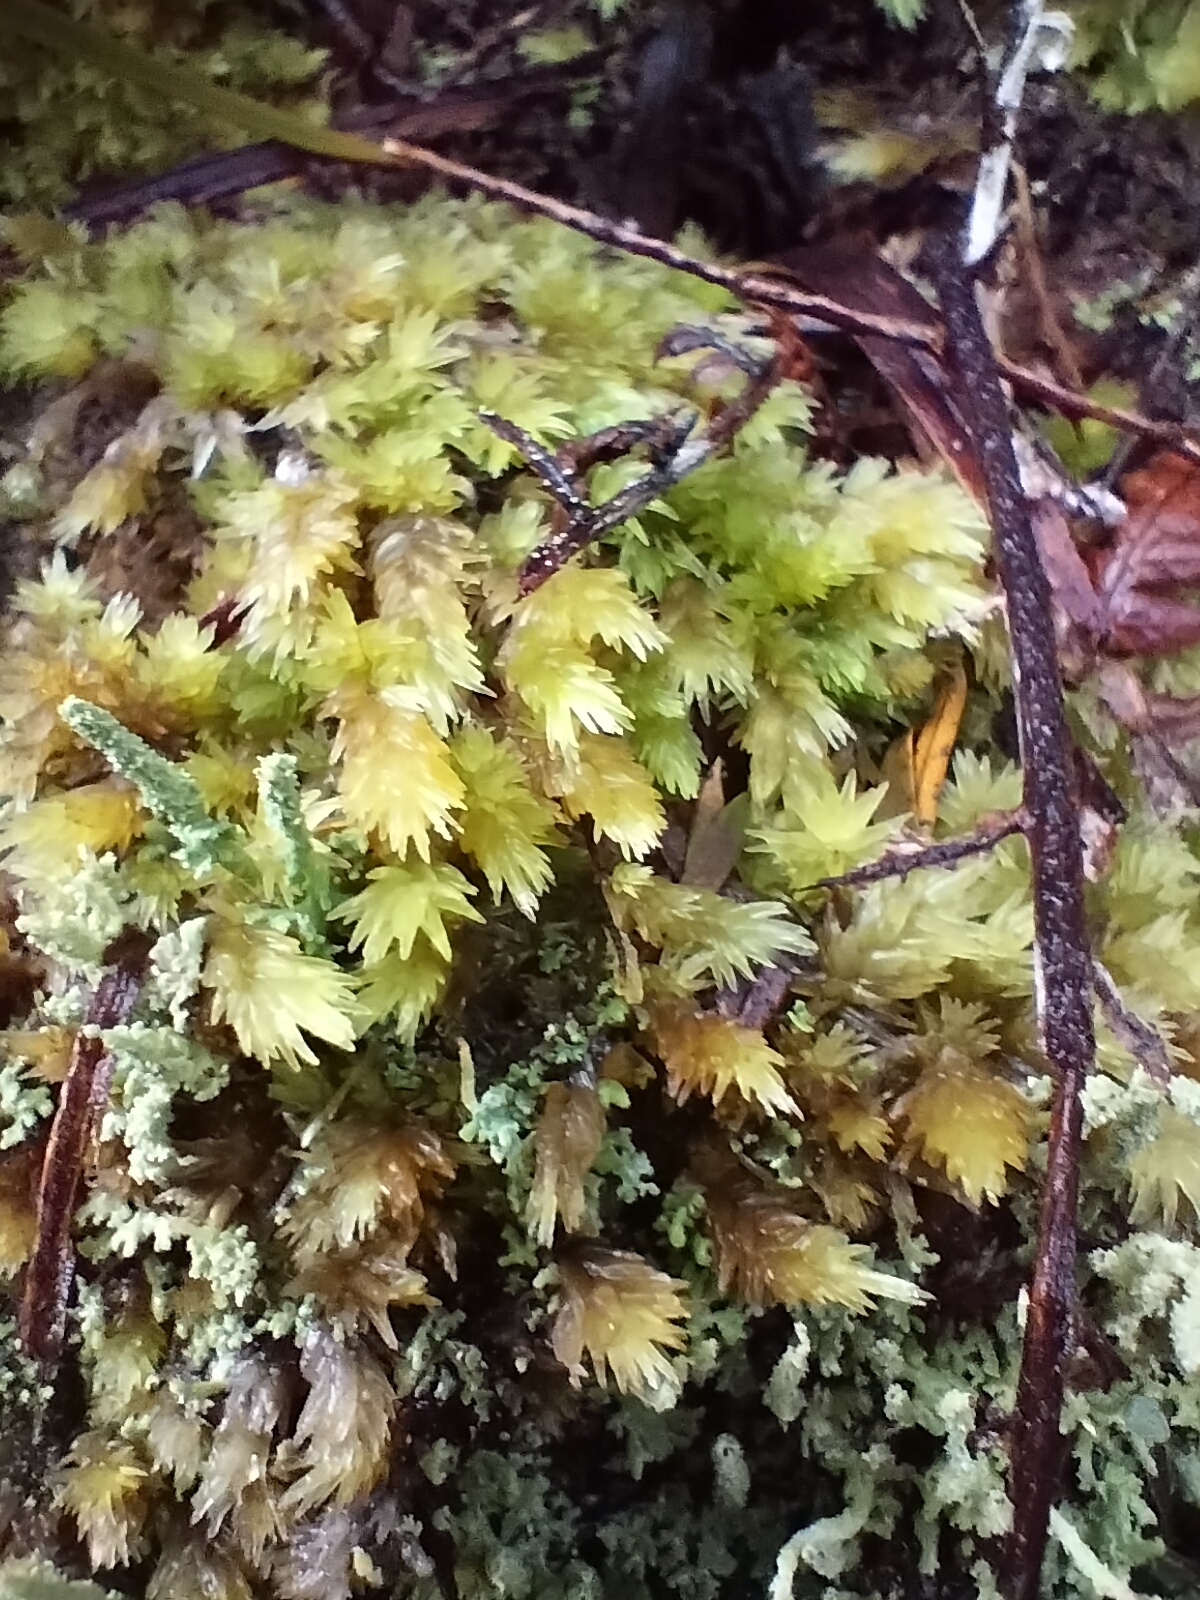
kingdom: Plantae
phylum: Bryophyta
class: Bryopsida
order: Dicranales
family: Leucobryaceae
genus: Leucobryum
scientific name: Leucobryum javense
